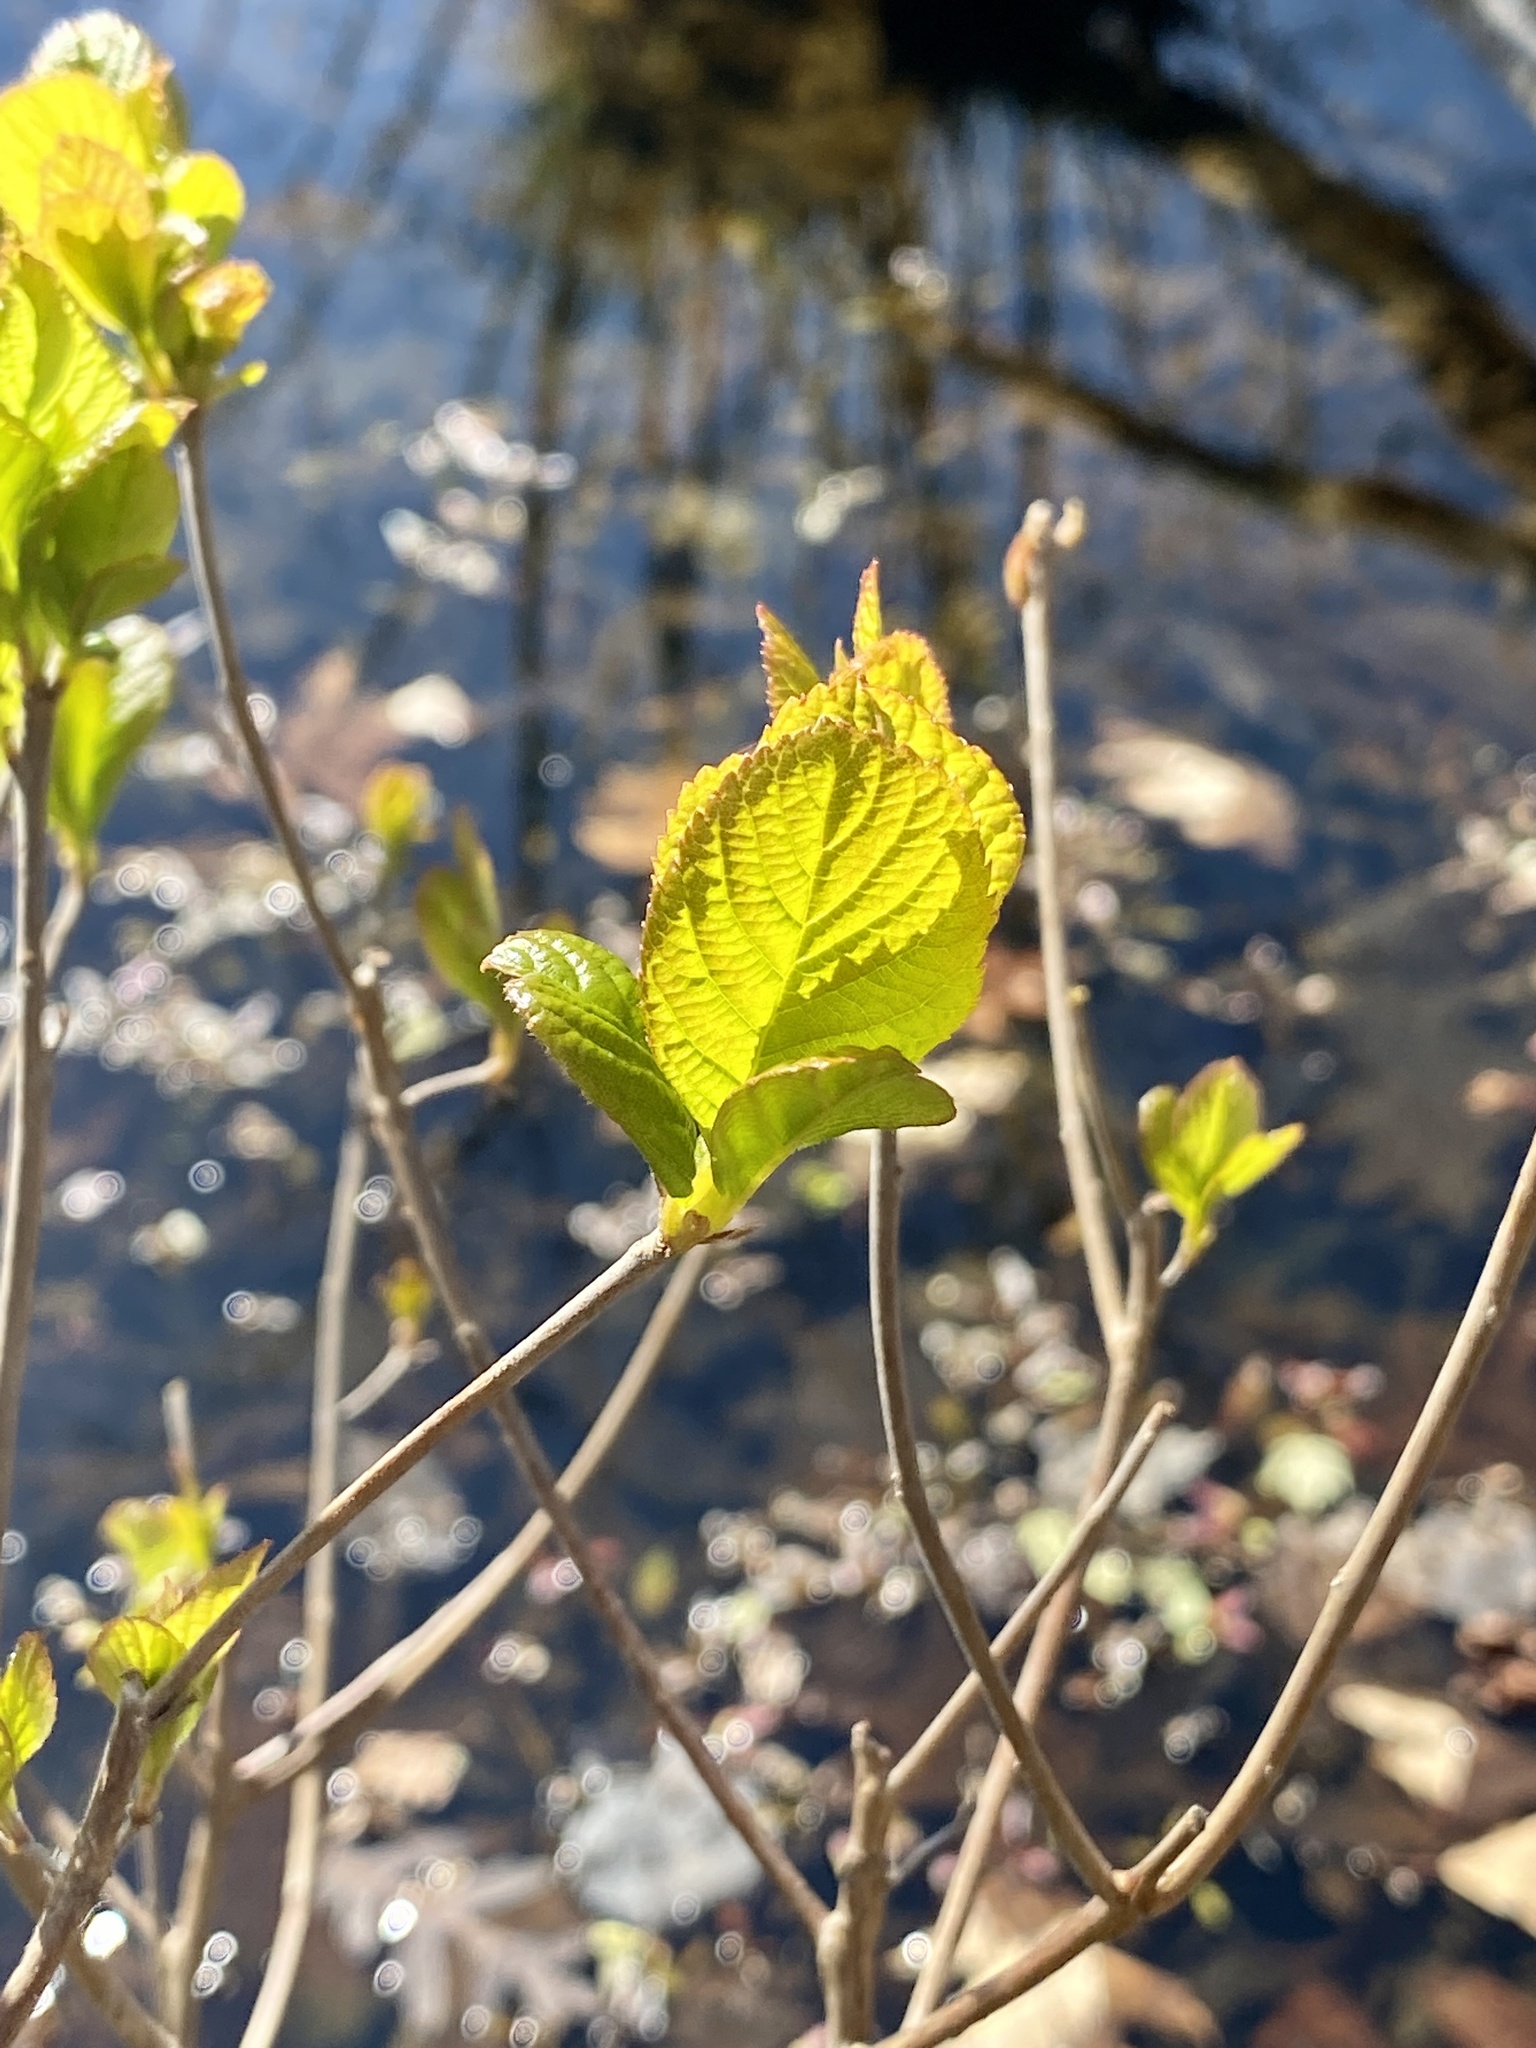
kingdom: Plantae
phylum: Tracheophyta
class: Magnoliopsida
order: Ericales
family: Clethraceae
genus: Clethra
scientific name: Clethra alnifolia
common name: Sweet pepperbush
